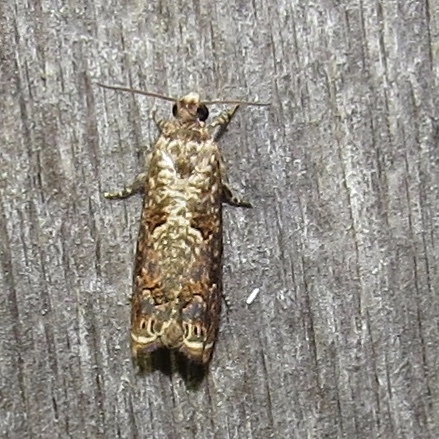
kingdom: Animalia
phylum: Arthropoda
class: Insecta
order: Lepidoptera
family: Tortricidae
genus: Episimus
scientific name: Episimus argutana
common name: Sumac leaftier moth
